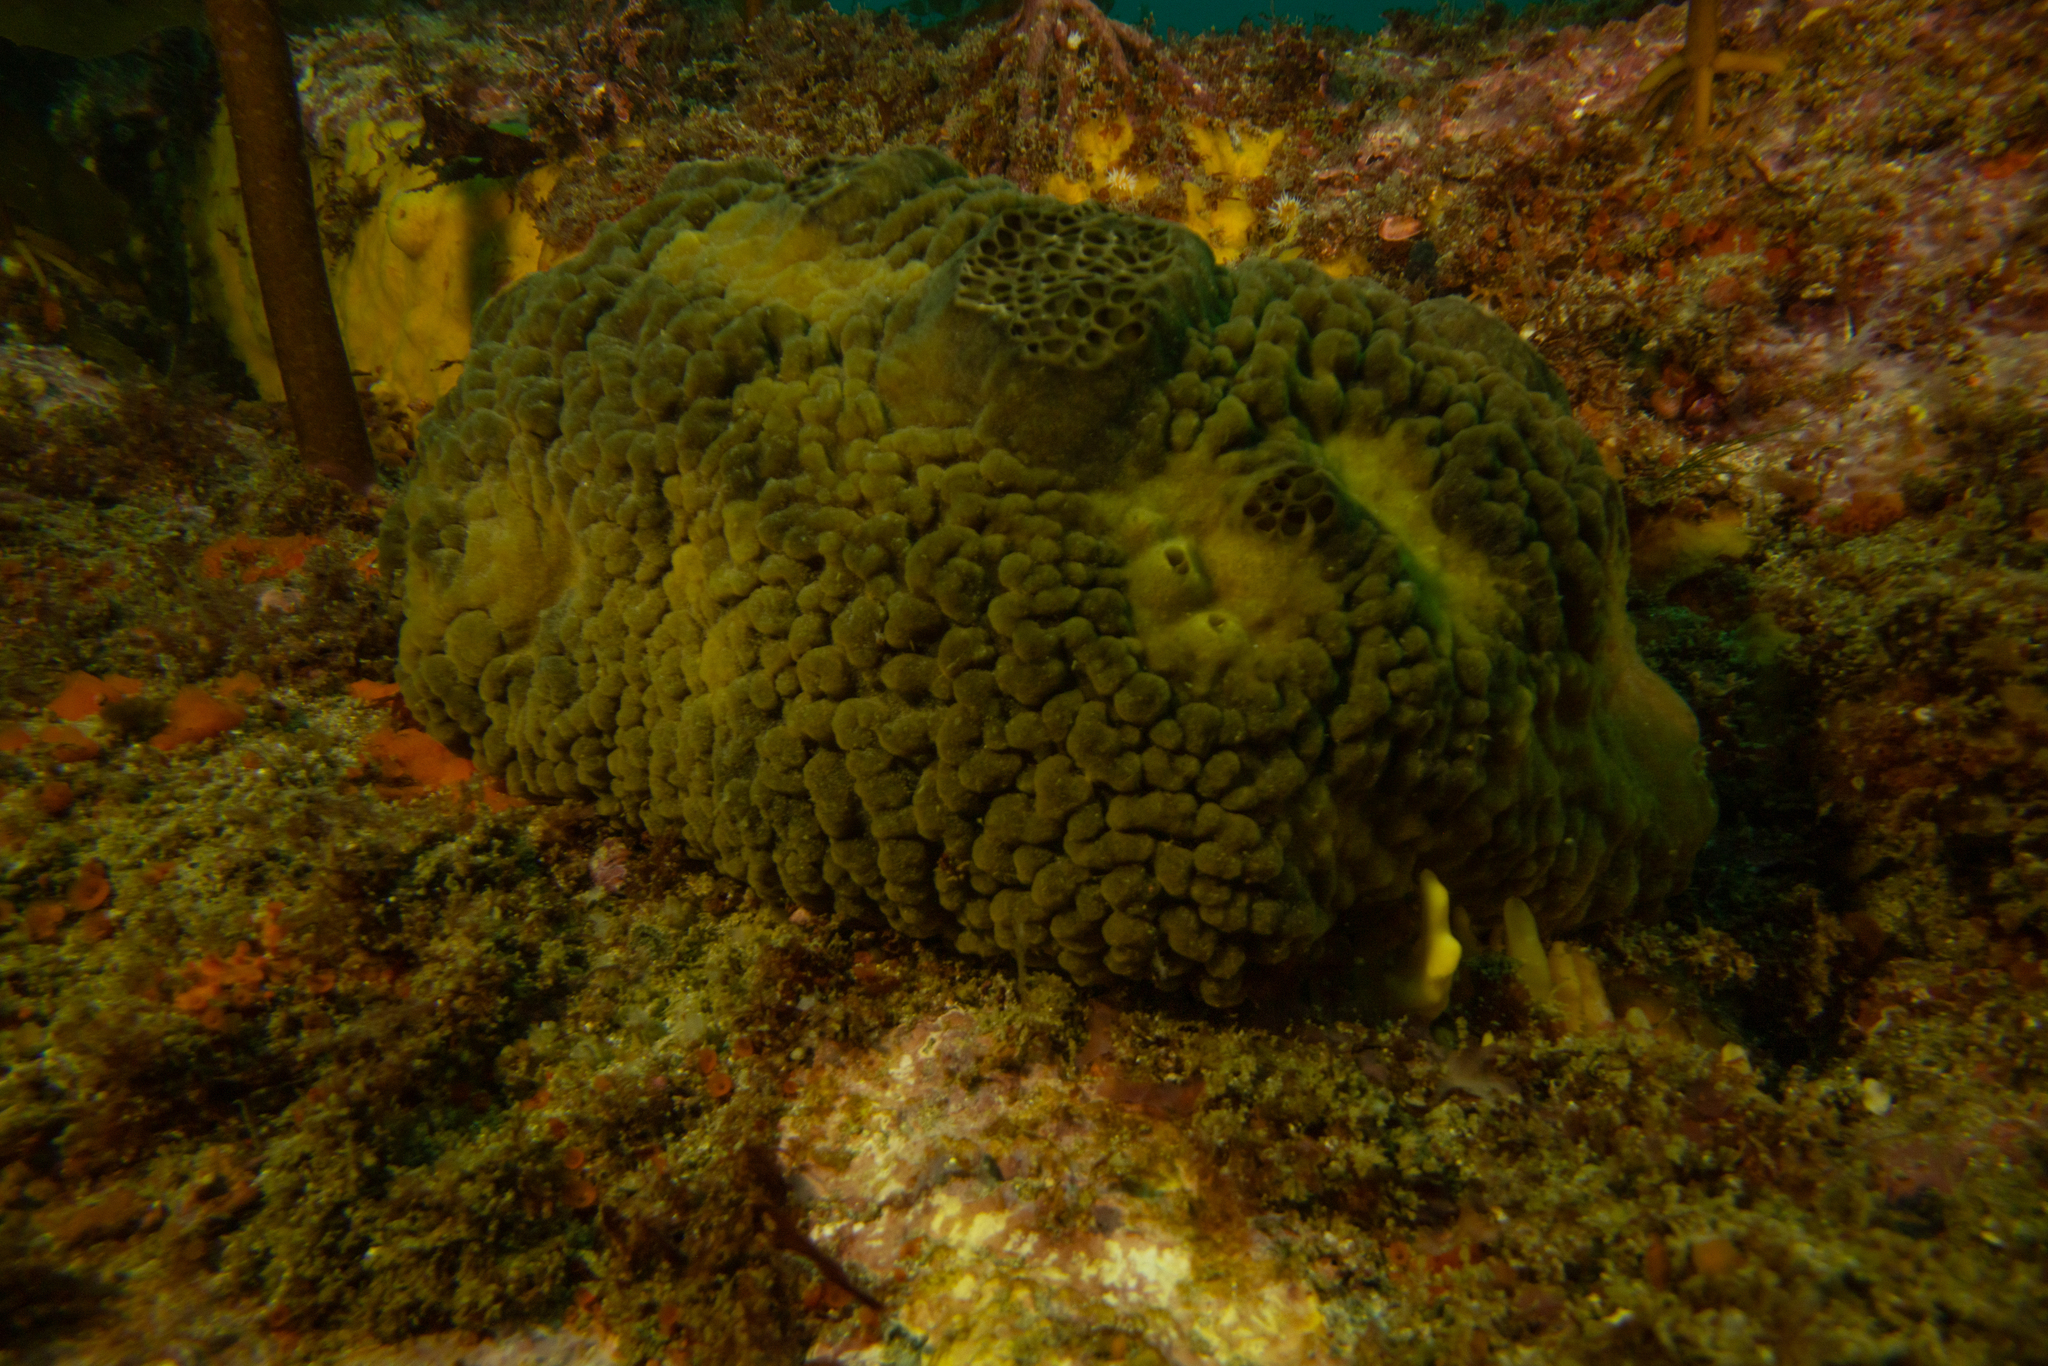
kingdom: Animalia
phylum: Porifera
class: Demospongiae
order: Polymastiida
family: Polymastiidae
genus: Polymastia
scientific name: Polymastia massalis
